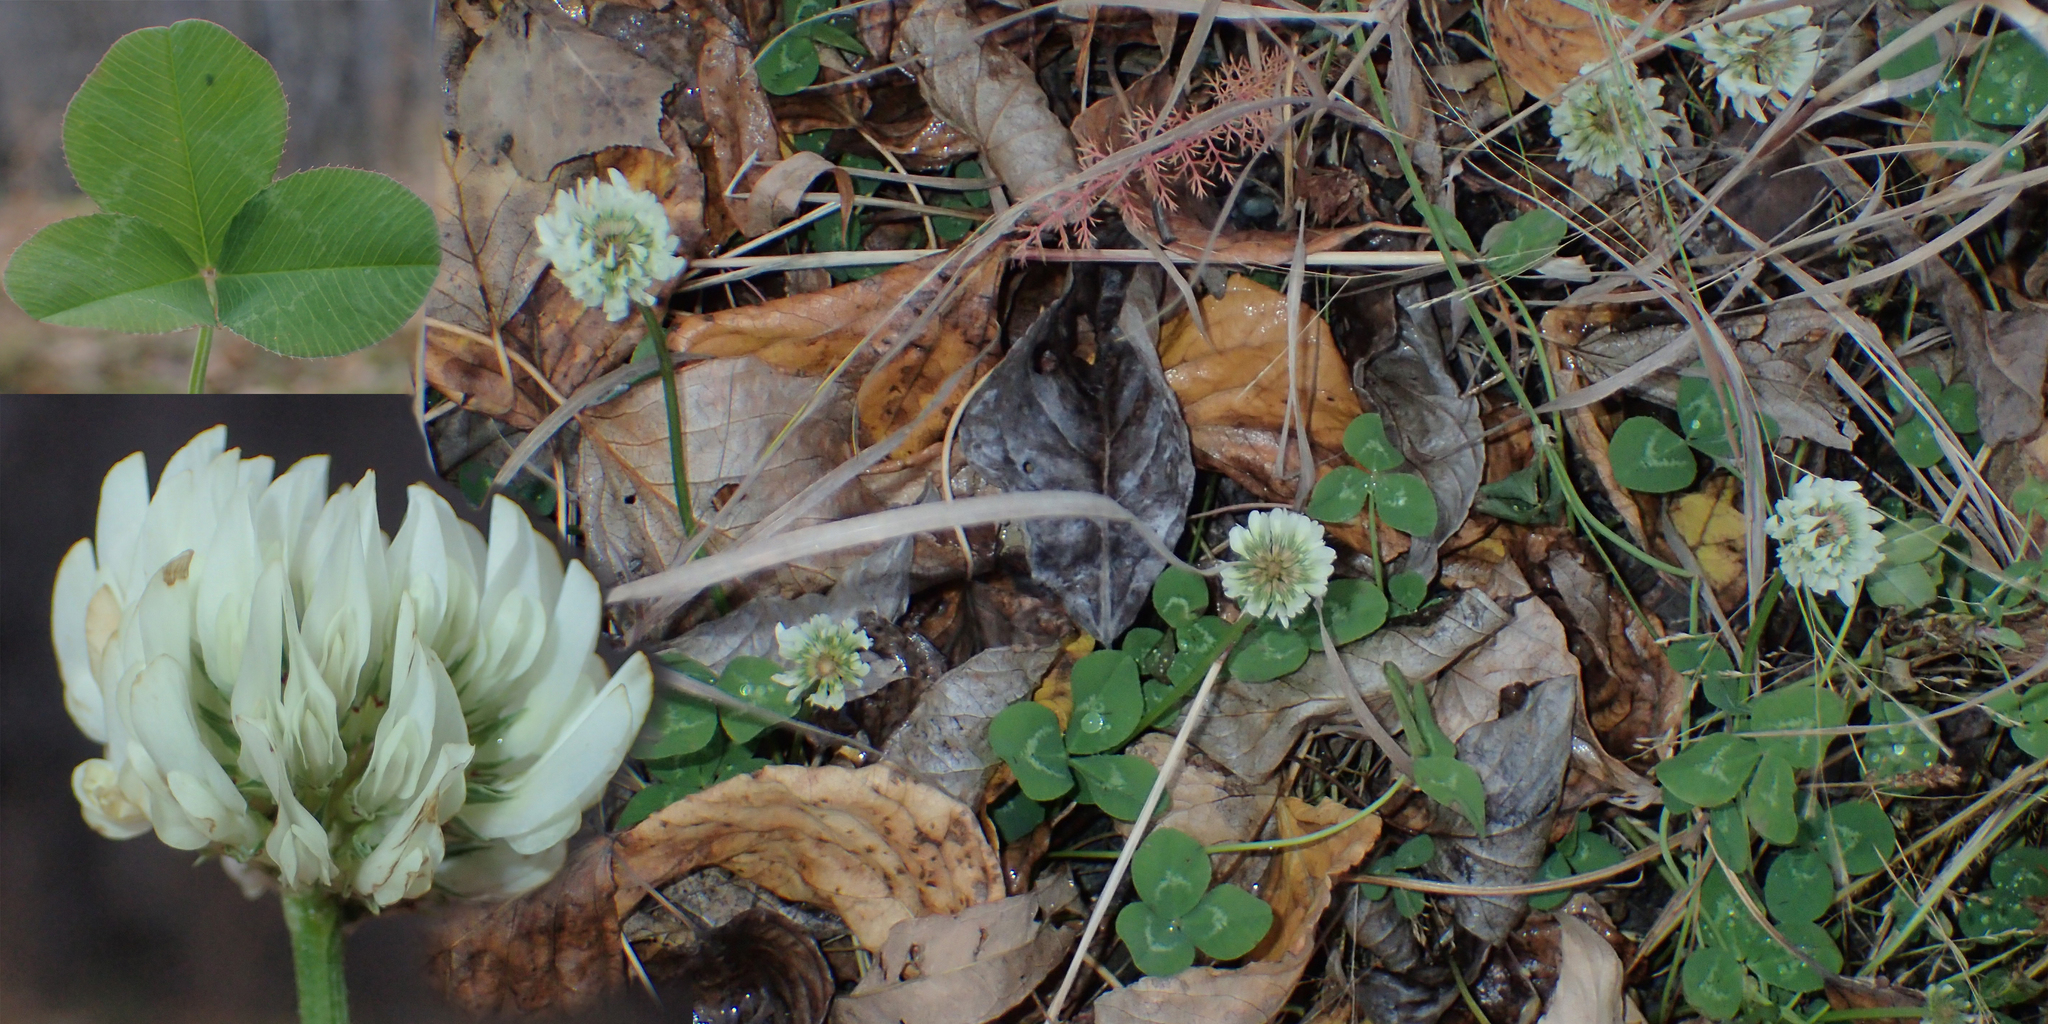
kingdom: Plantae
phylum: Tracheophyta
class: Magnoliopsida
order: Fabales
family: Fabaceae
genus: Trifolium
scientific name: Trifolium repens
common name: White clover
